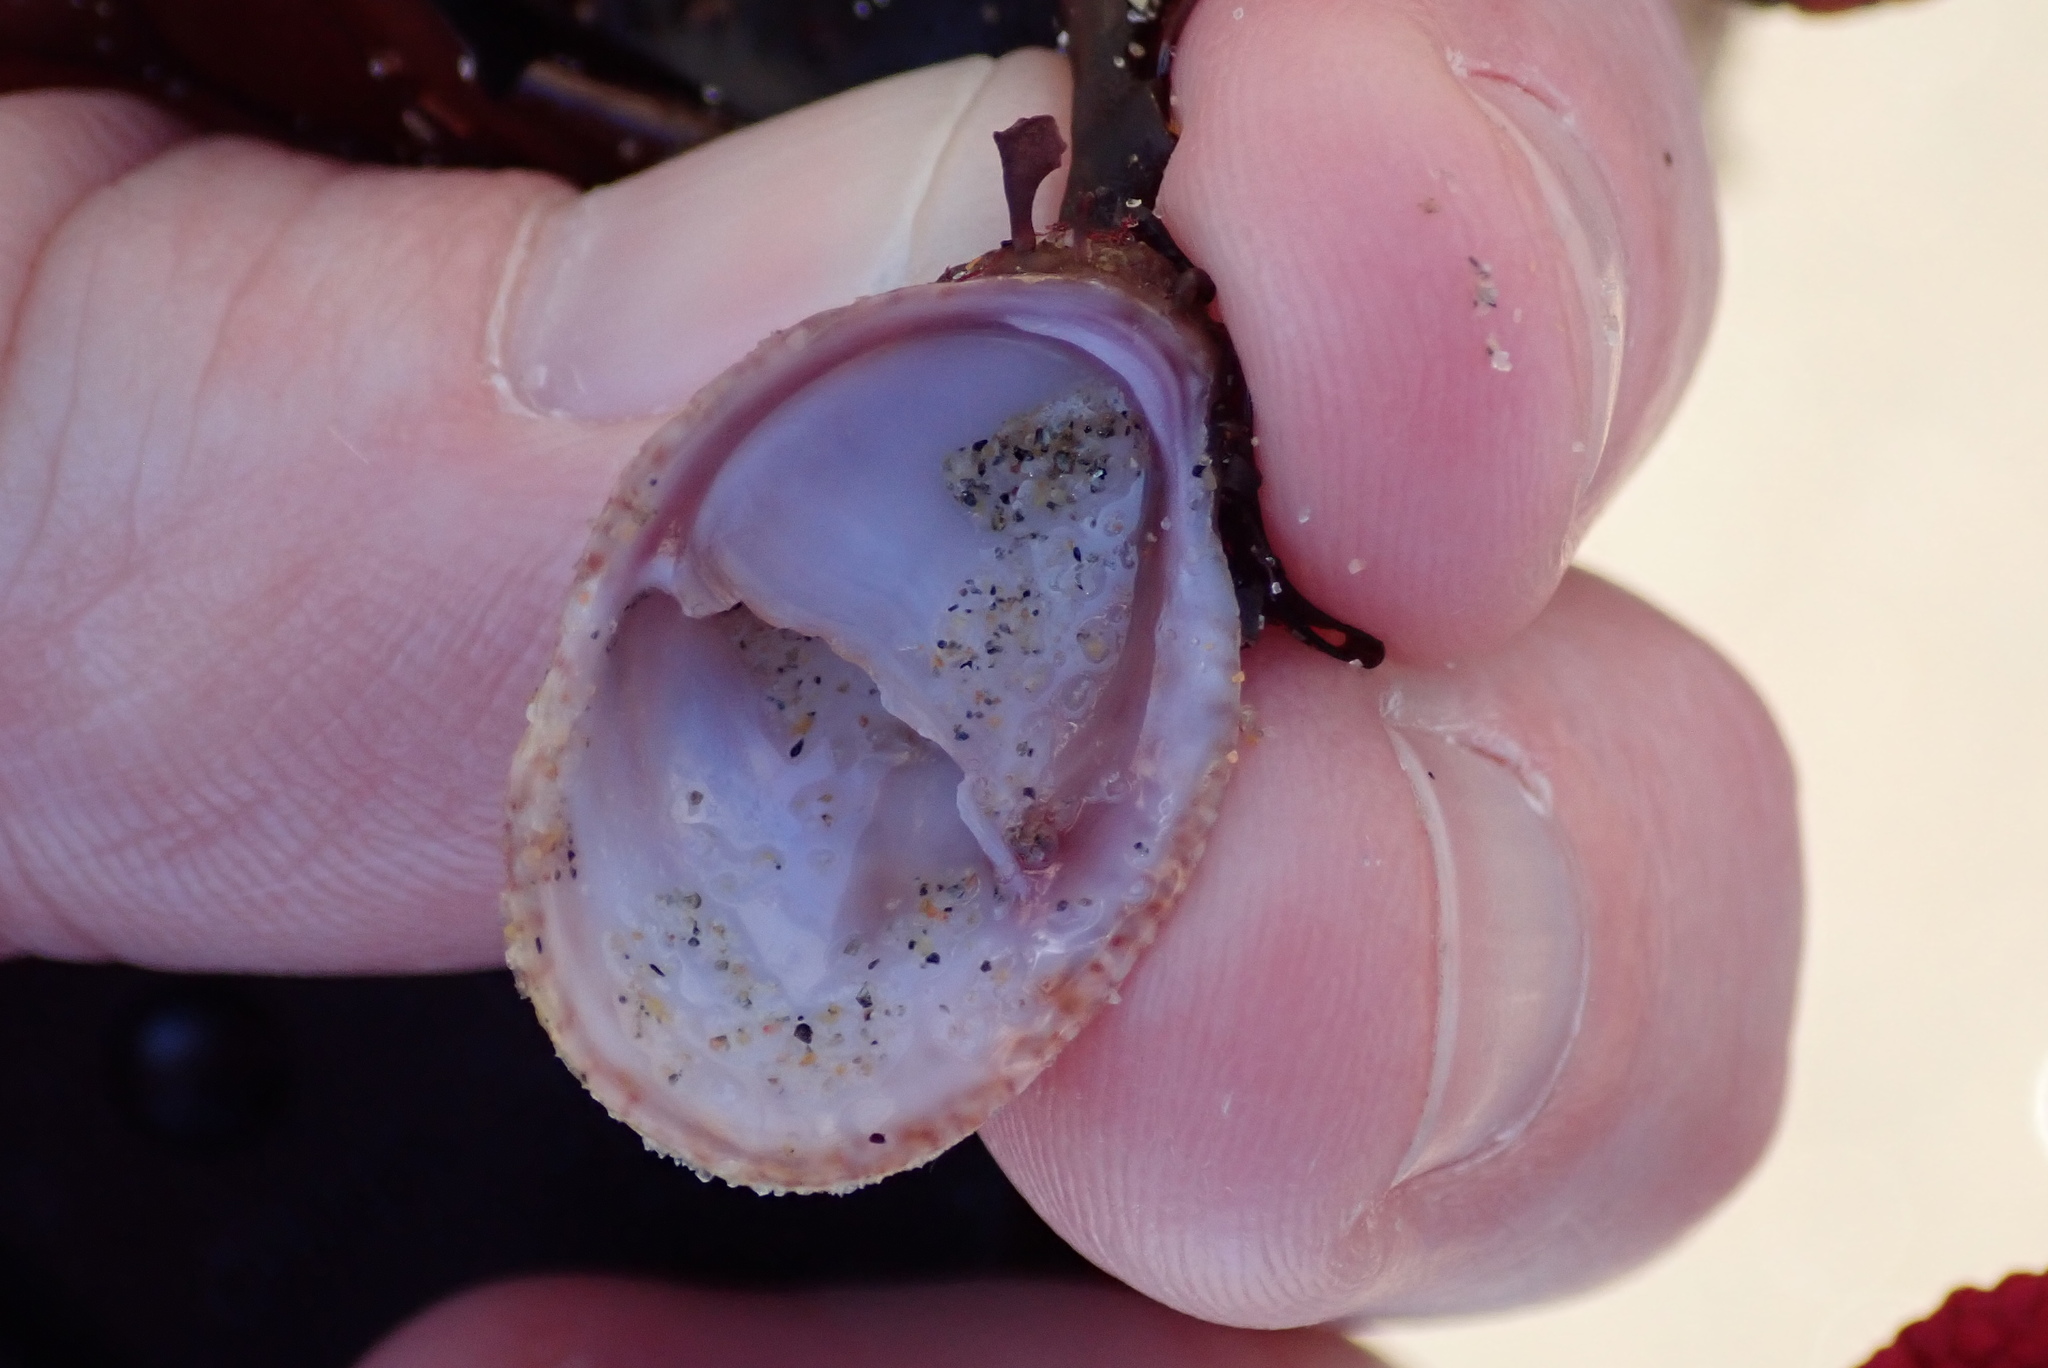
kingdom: Animalia
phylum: Mollusca
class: Gastropoda
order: Littorinimorpha
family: Calyptraeidae
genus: Crepidula
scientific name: Crepidula fornicata
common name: Slipper limpet
